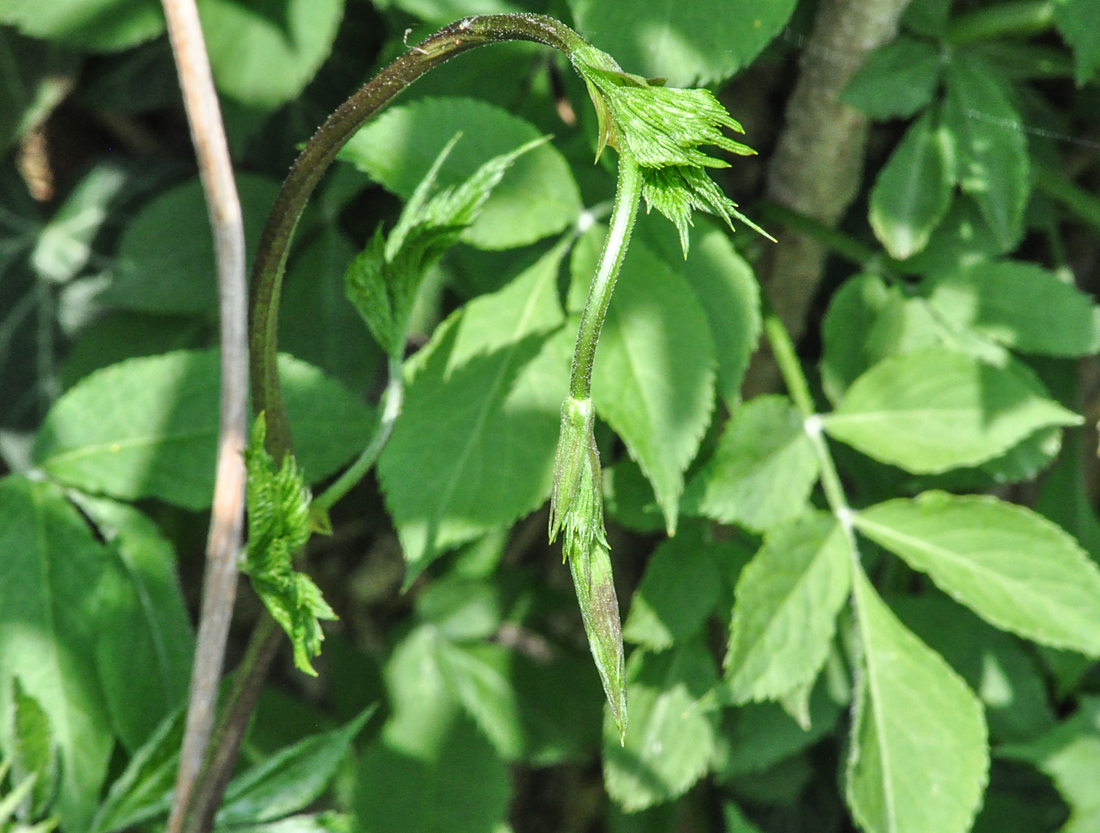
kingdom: Plantae
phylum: Tracheophyta
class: Magnoliopsida
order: Rosales
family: Cannabaceae
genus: Humulus
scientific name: Humulus lupulus
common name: Hop
